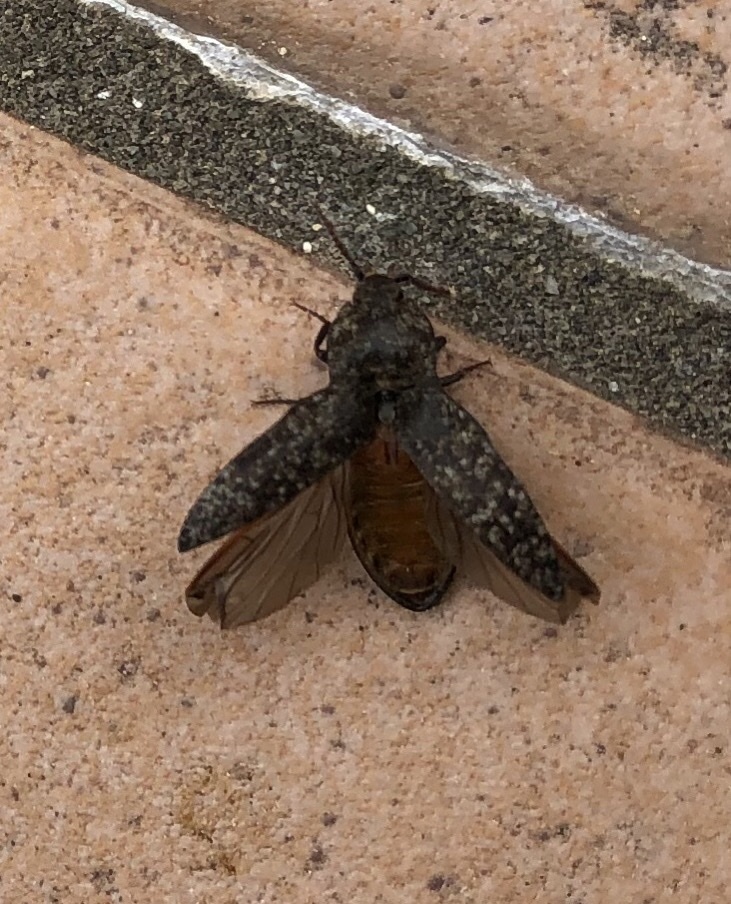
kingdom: Animalia
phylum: Arthropoda
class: Insecta
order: Coleoptera
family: Elateridae
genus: Agrypnus
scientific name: Agrypnus murinus
